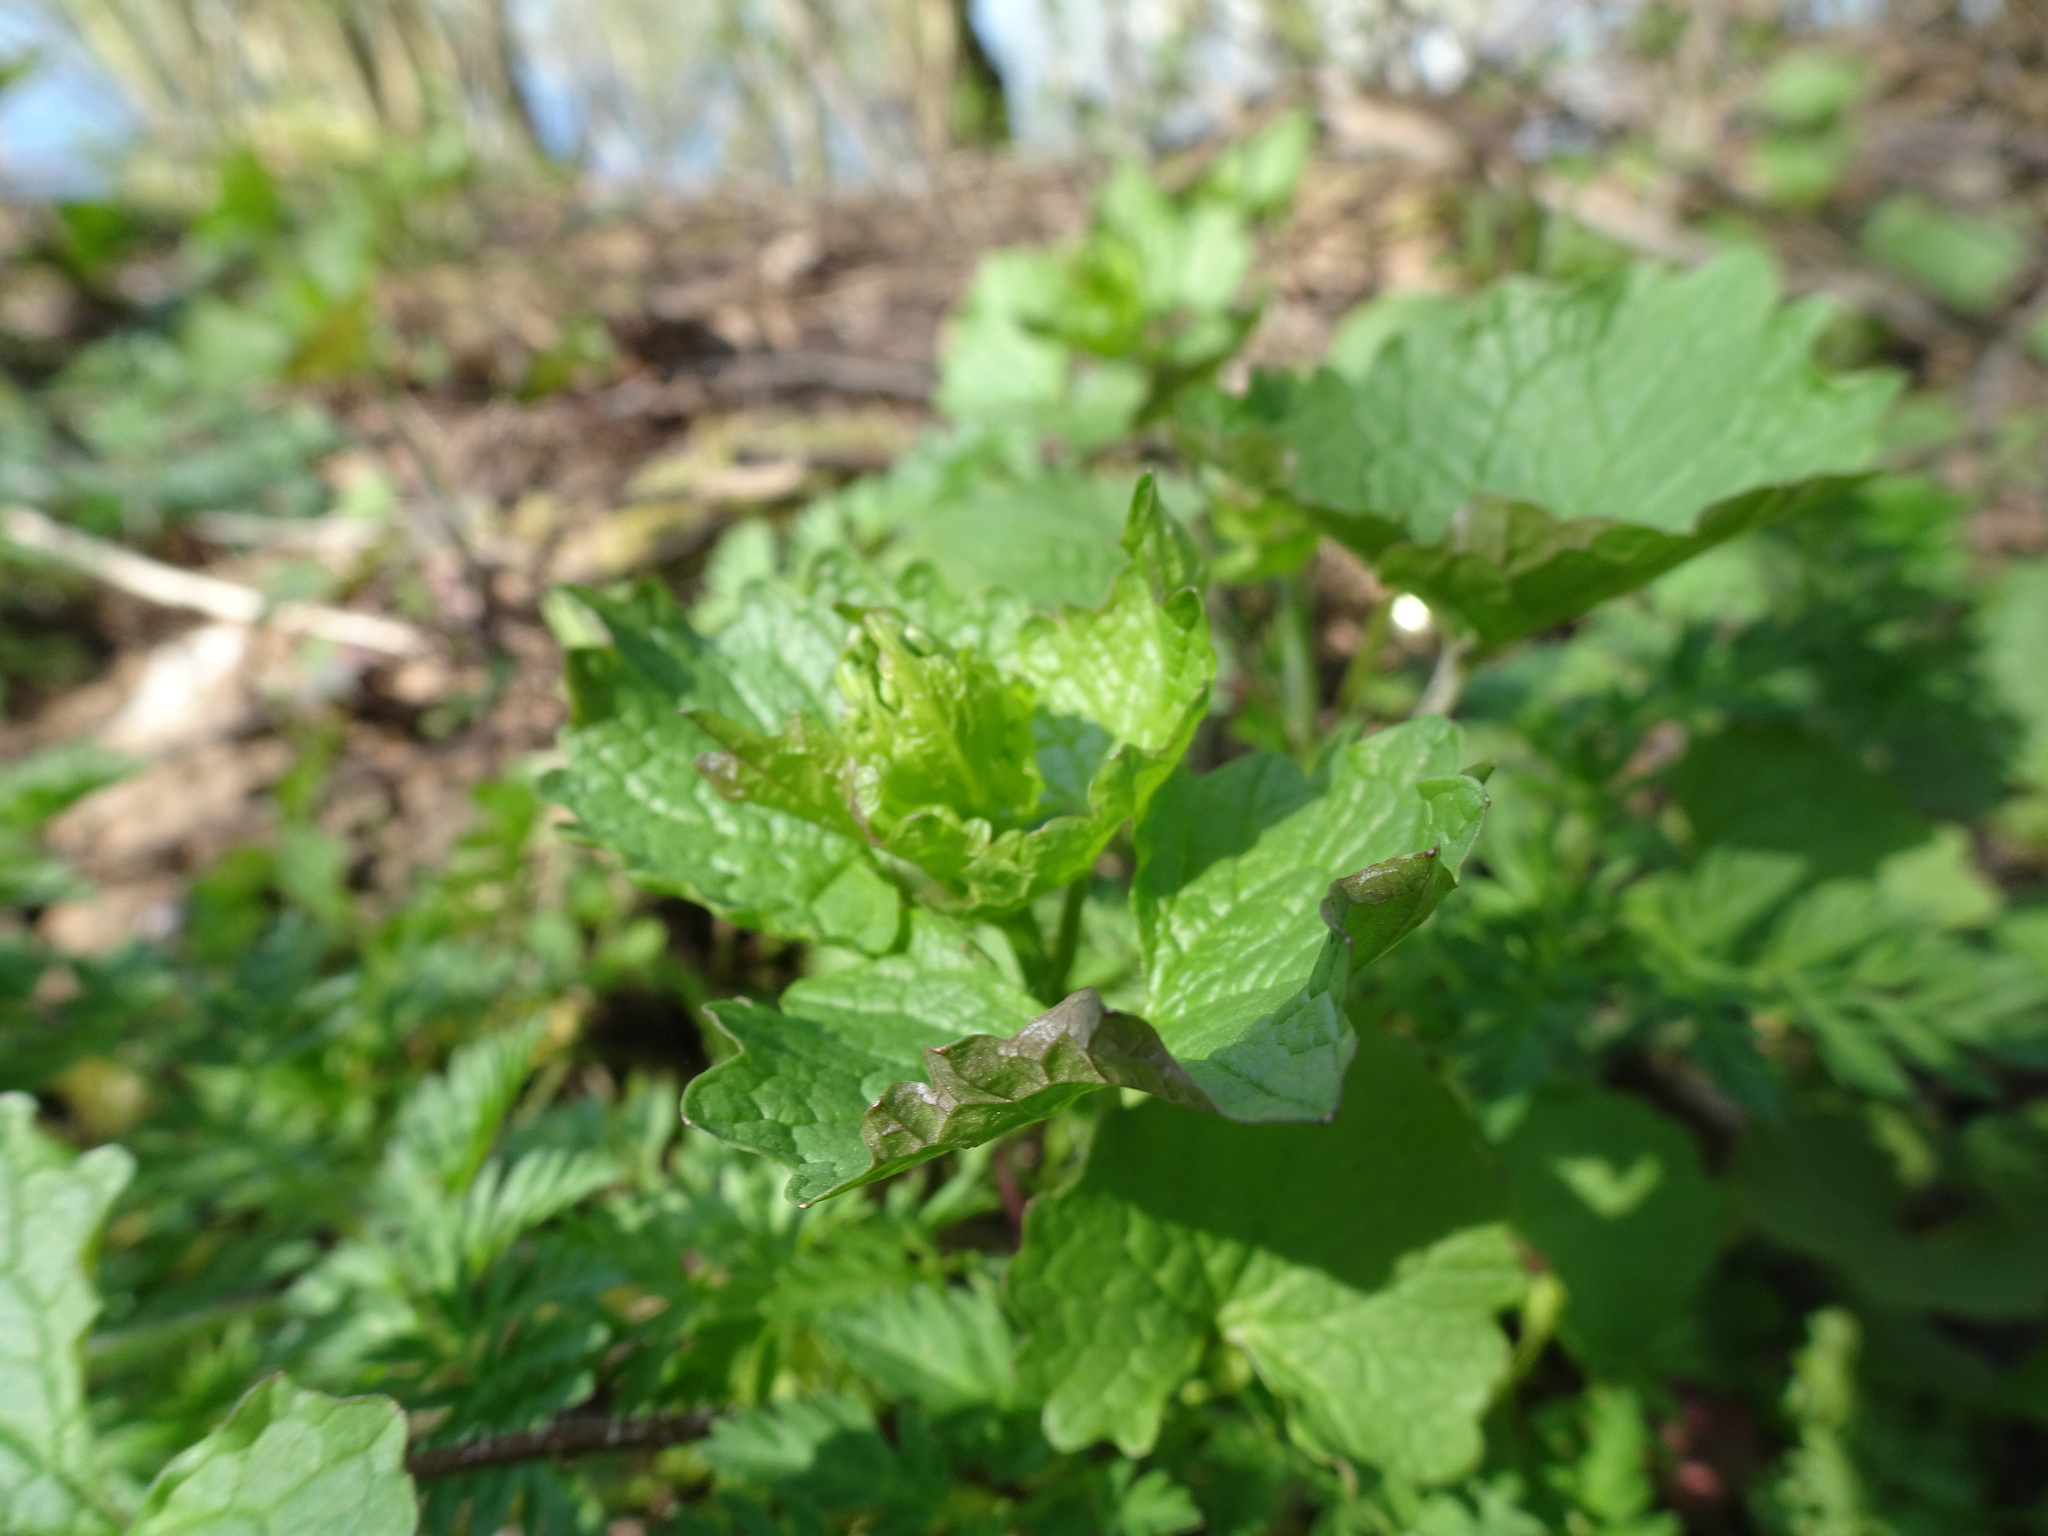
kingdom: Plantae
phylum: Tracheophyta
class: Magnoliopsida
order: Brassicales
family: Brassicaceae
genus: Alliaria
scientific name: Alliaria petiolata
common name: Garlic mustard
